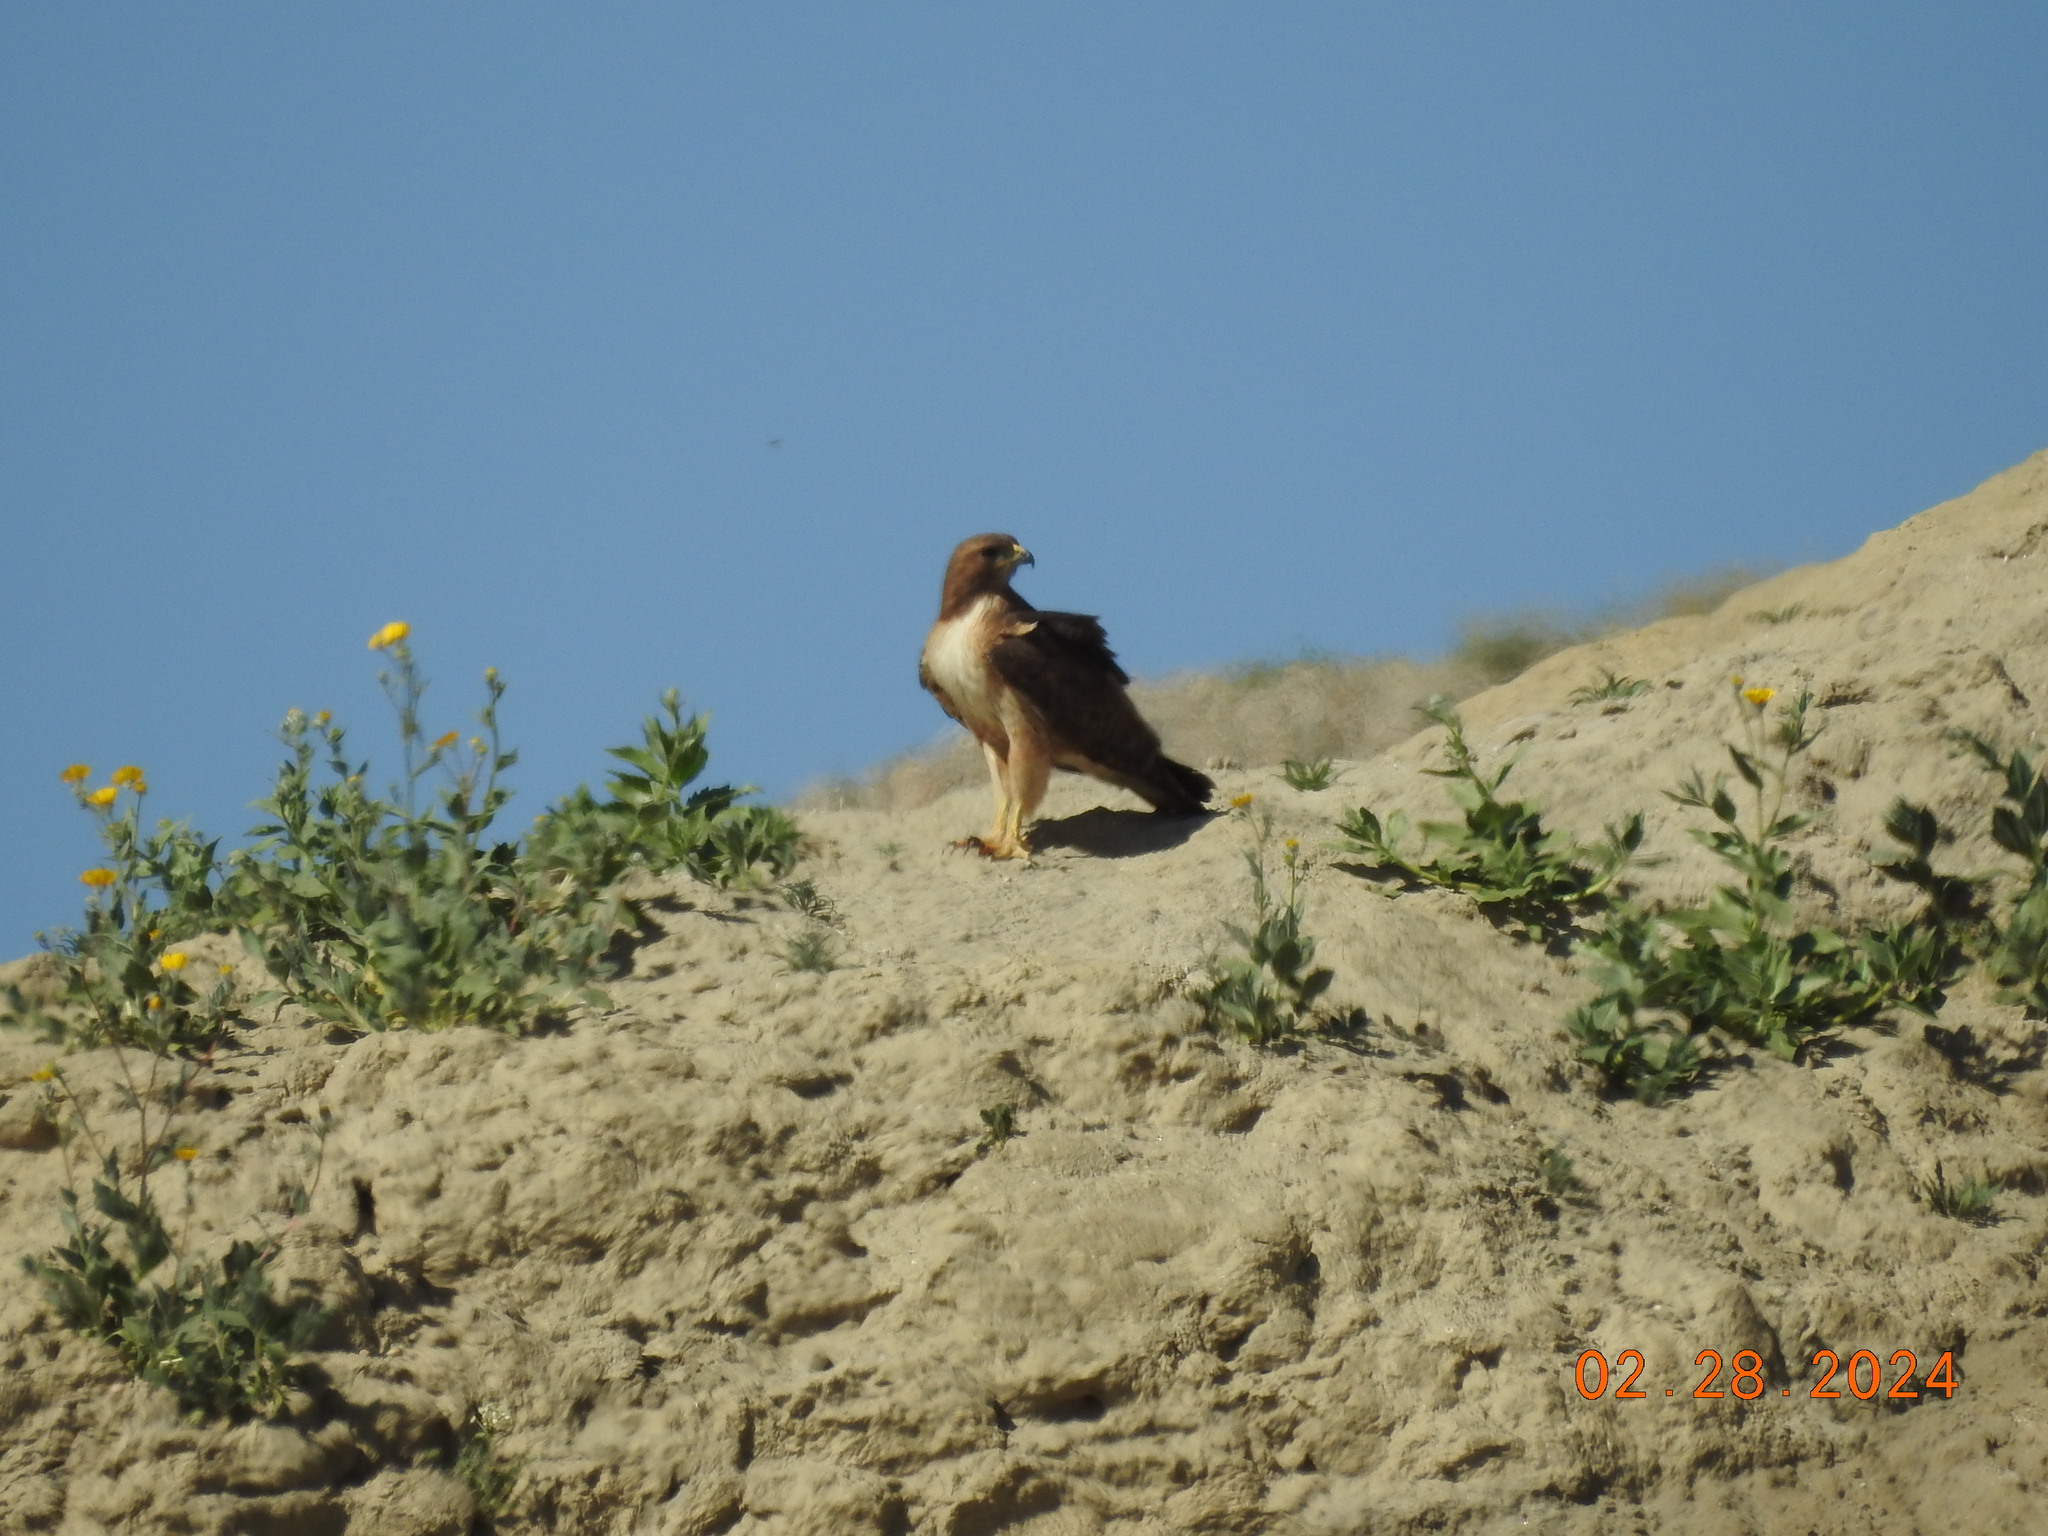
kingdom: Animalia
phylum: Chordata
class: Aves
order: Accipitriformes
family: Accipitridae
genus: Buteo
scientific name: Buteo jamaicensis
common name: Red-tailed hawk
